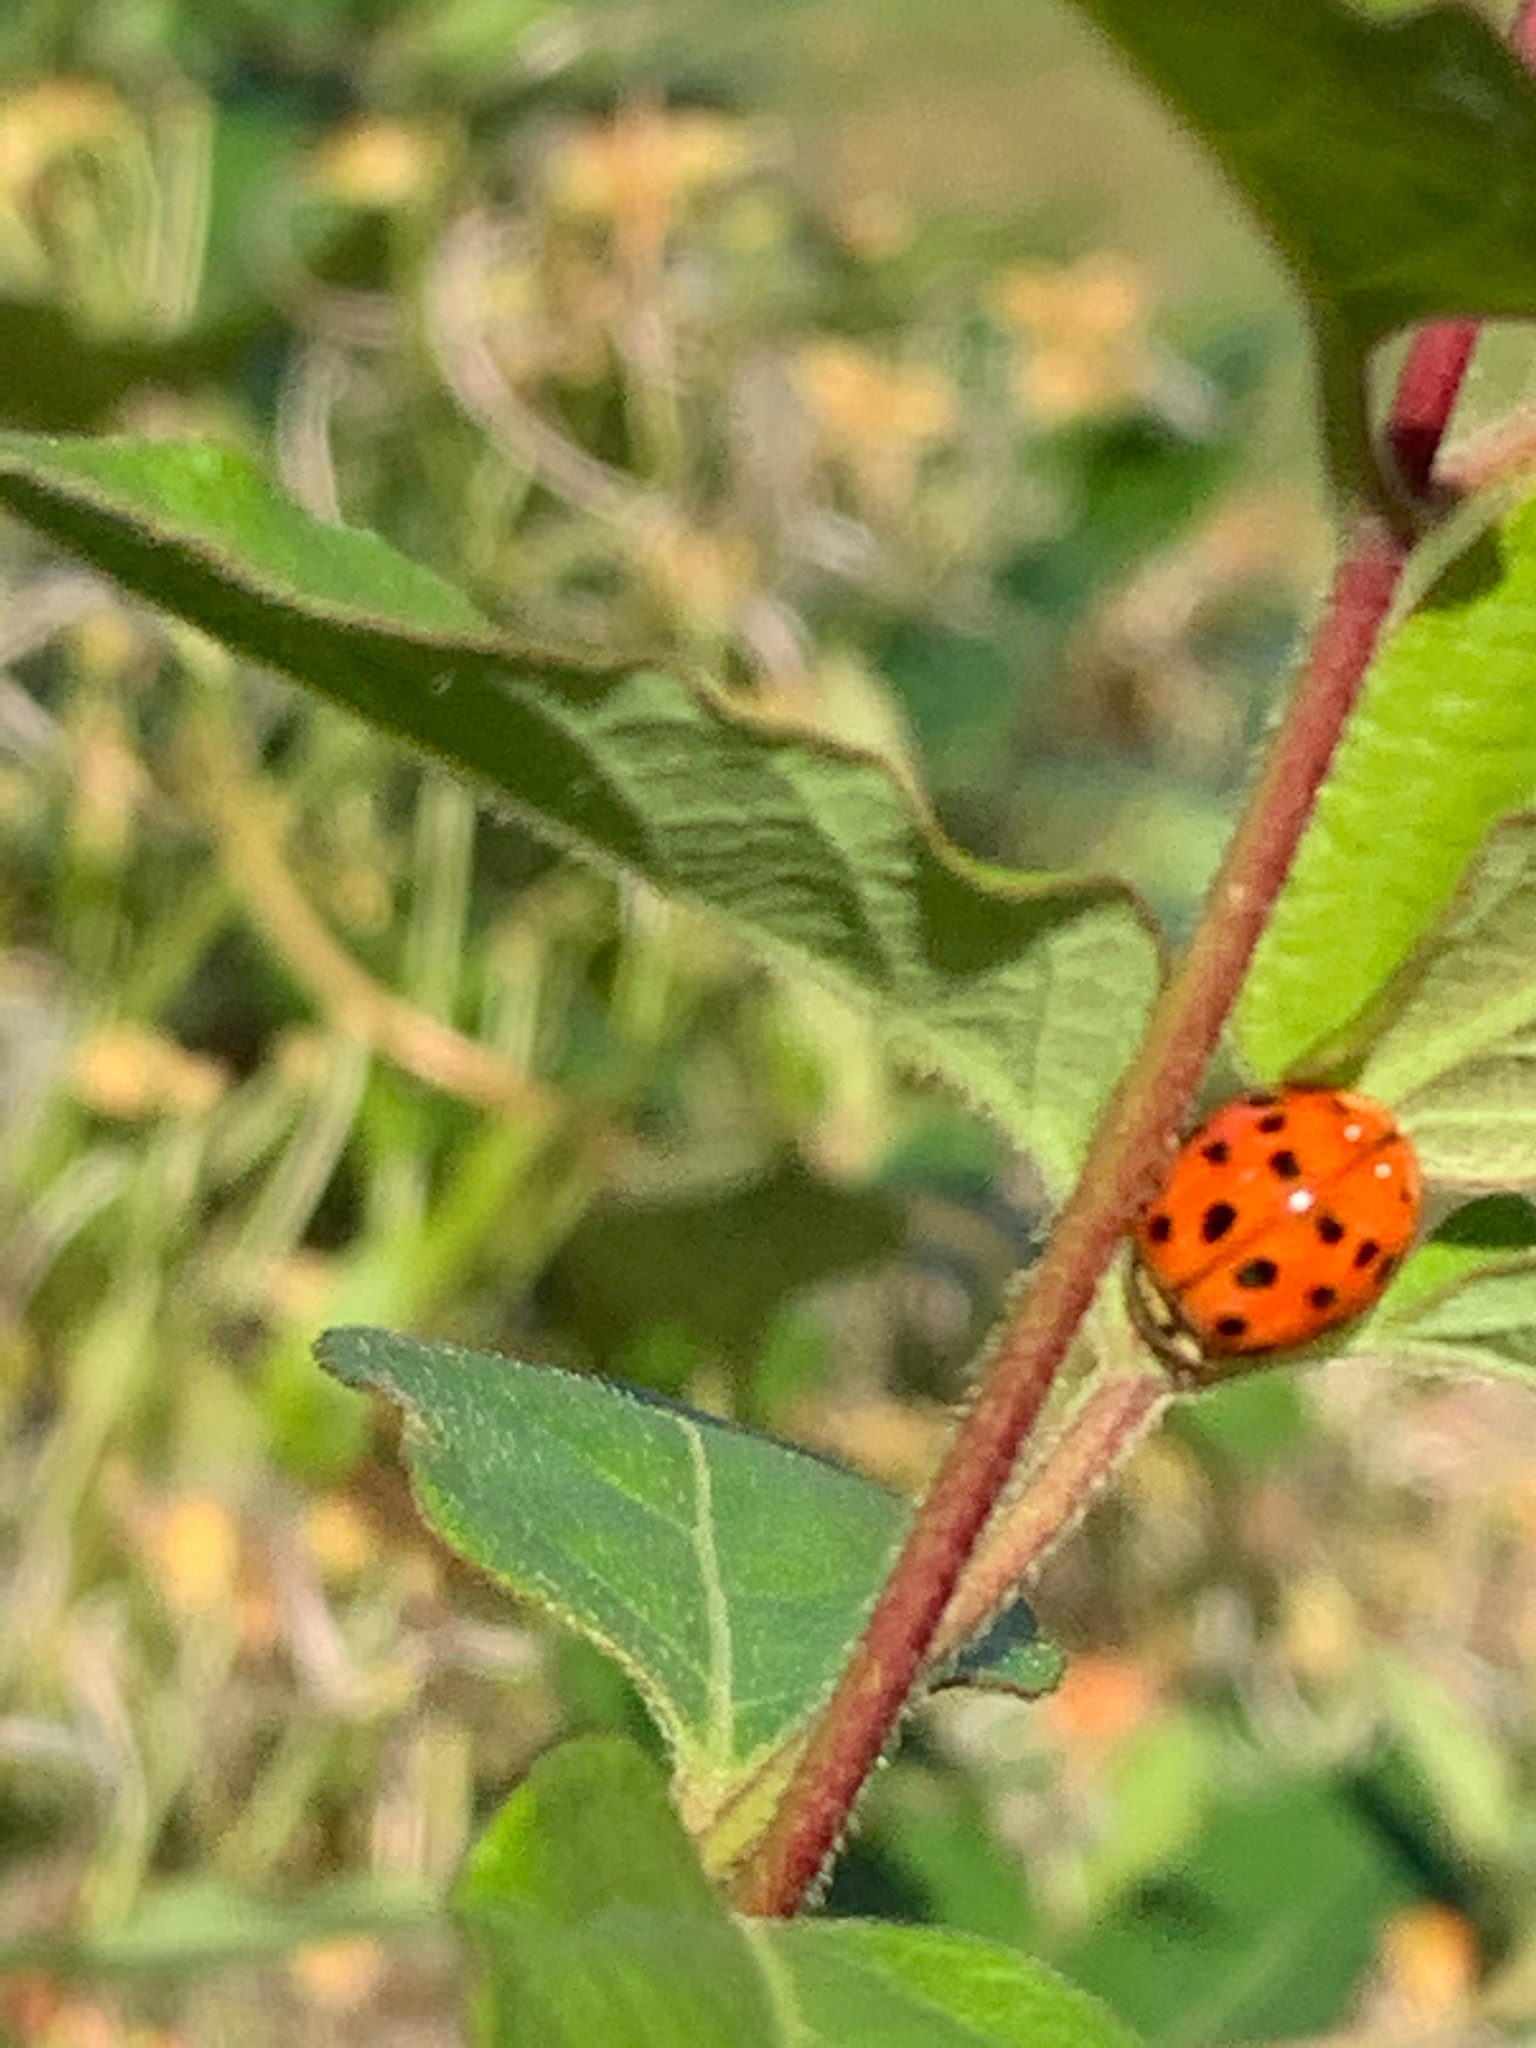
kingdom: Animalia
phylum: Arthropoda
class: Insecta
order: Coleoptera
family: Coccinellidae
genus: Harmonia
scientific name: Harmonia axyridis
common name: Harlequin ladybird
